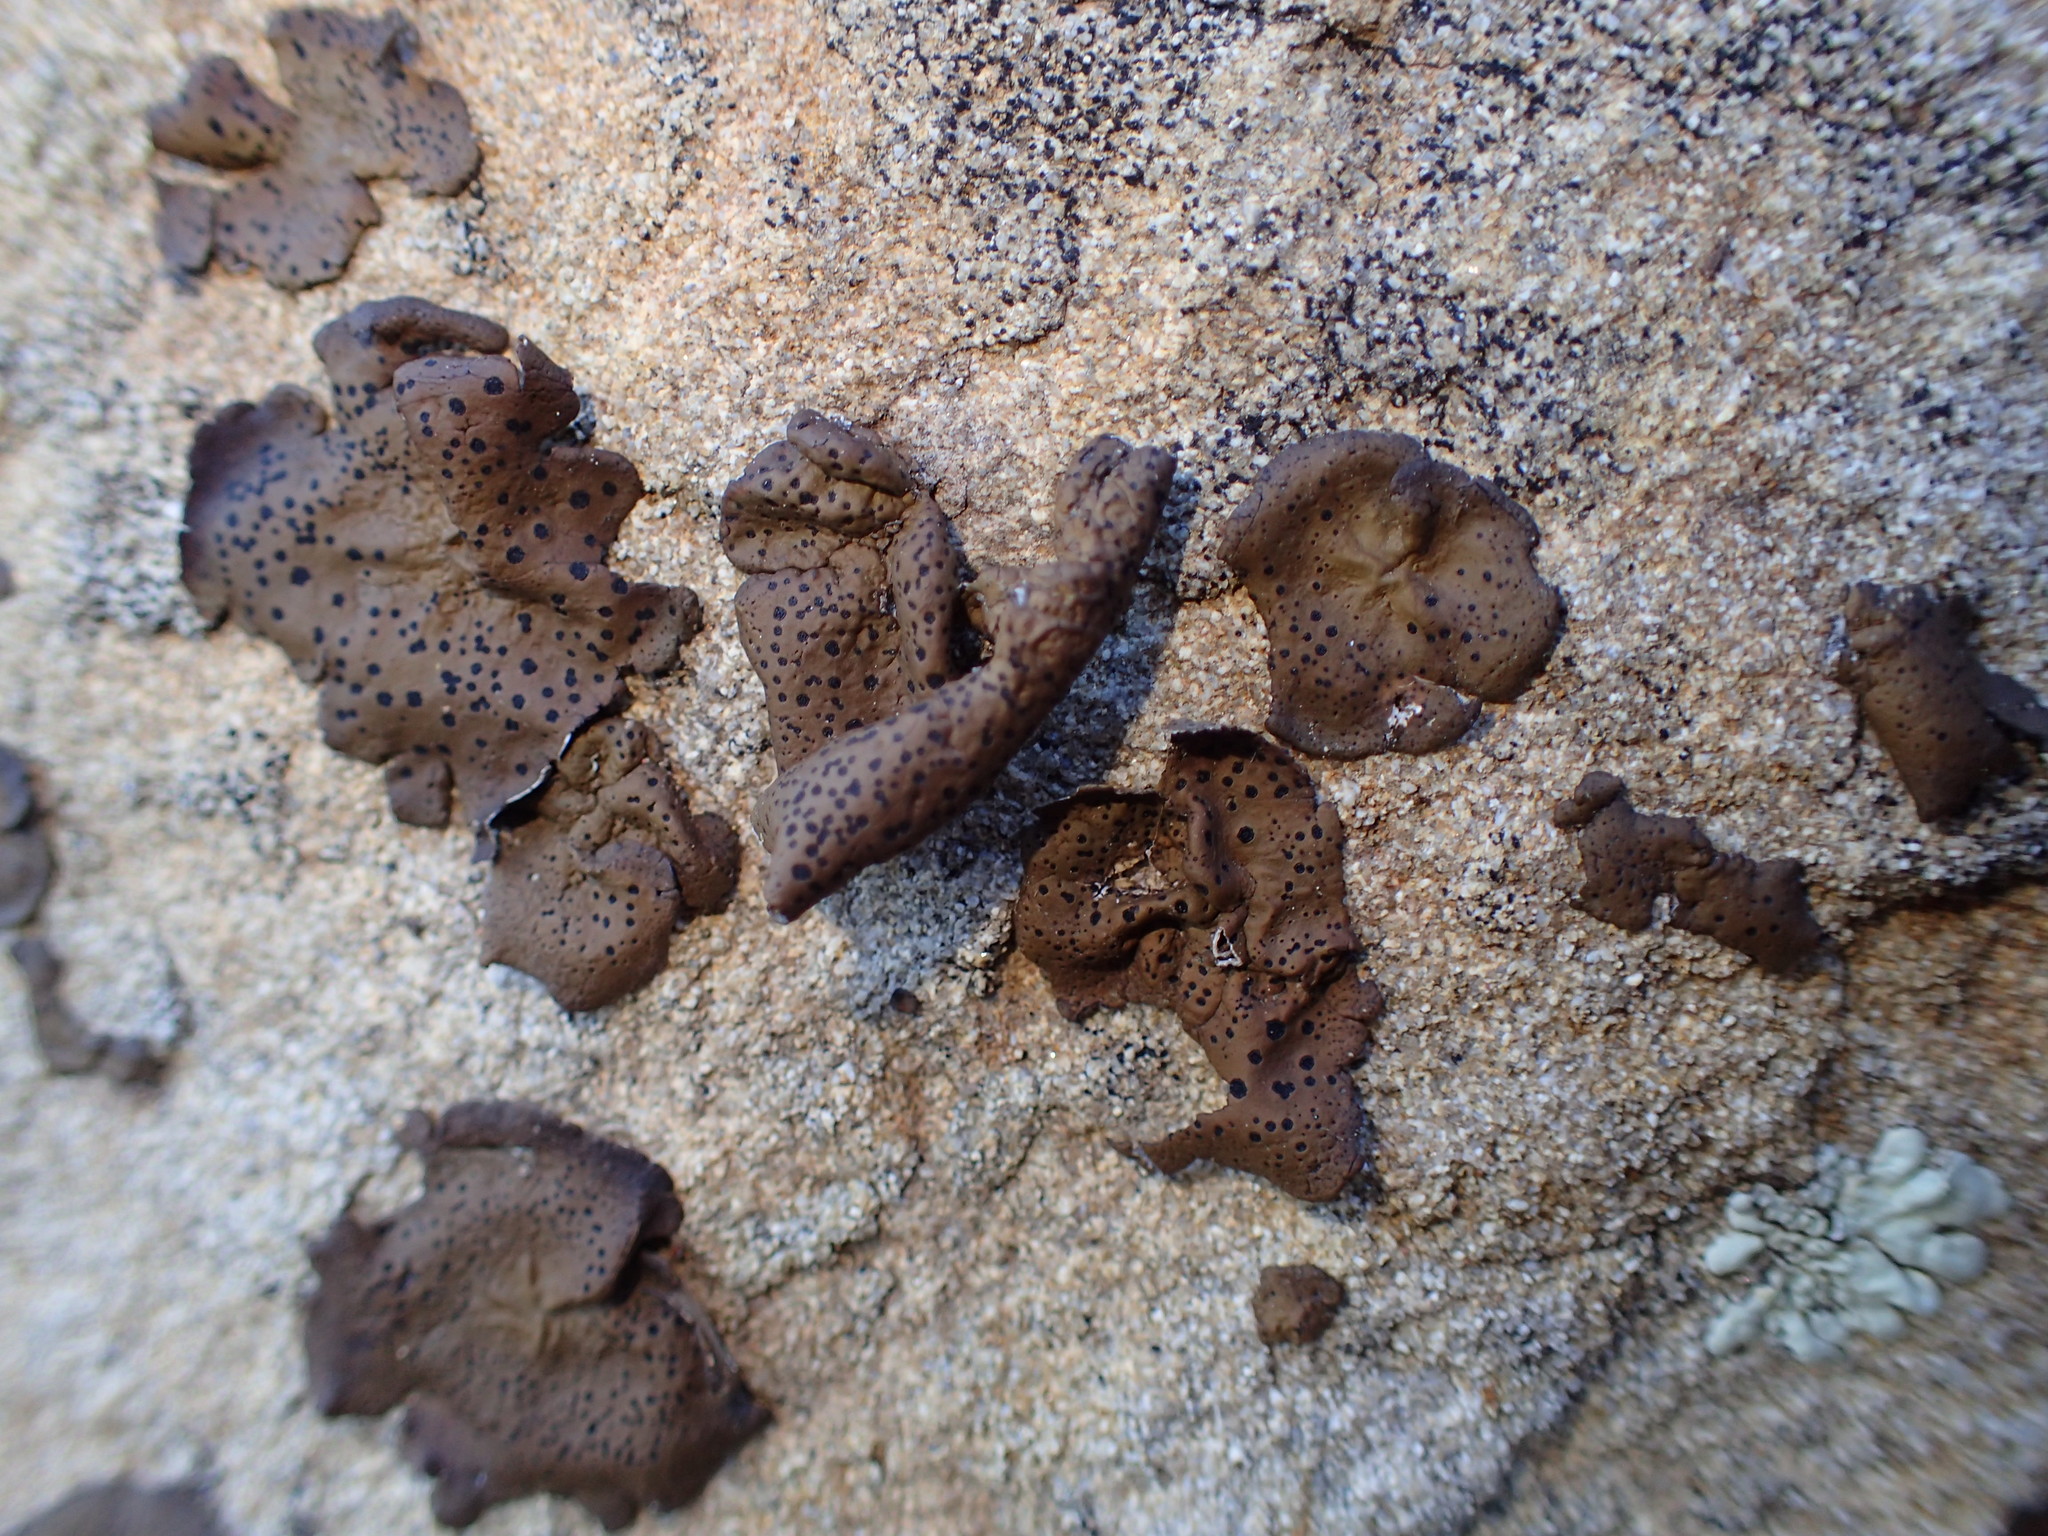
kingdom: Fungi
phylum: Ascomycota
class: Lecanoromycetes
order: Umbilicariales
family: Umbilicariaceae
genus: Umbilicaria
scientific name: Umbilicaria phaea
